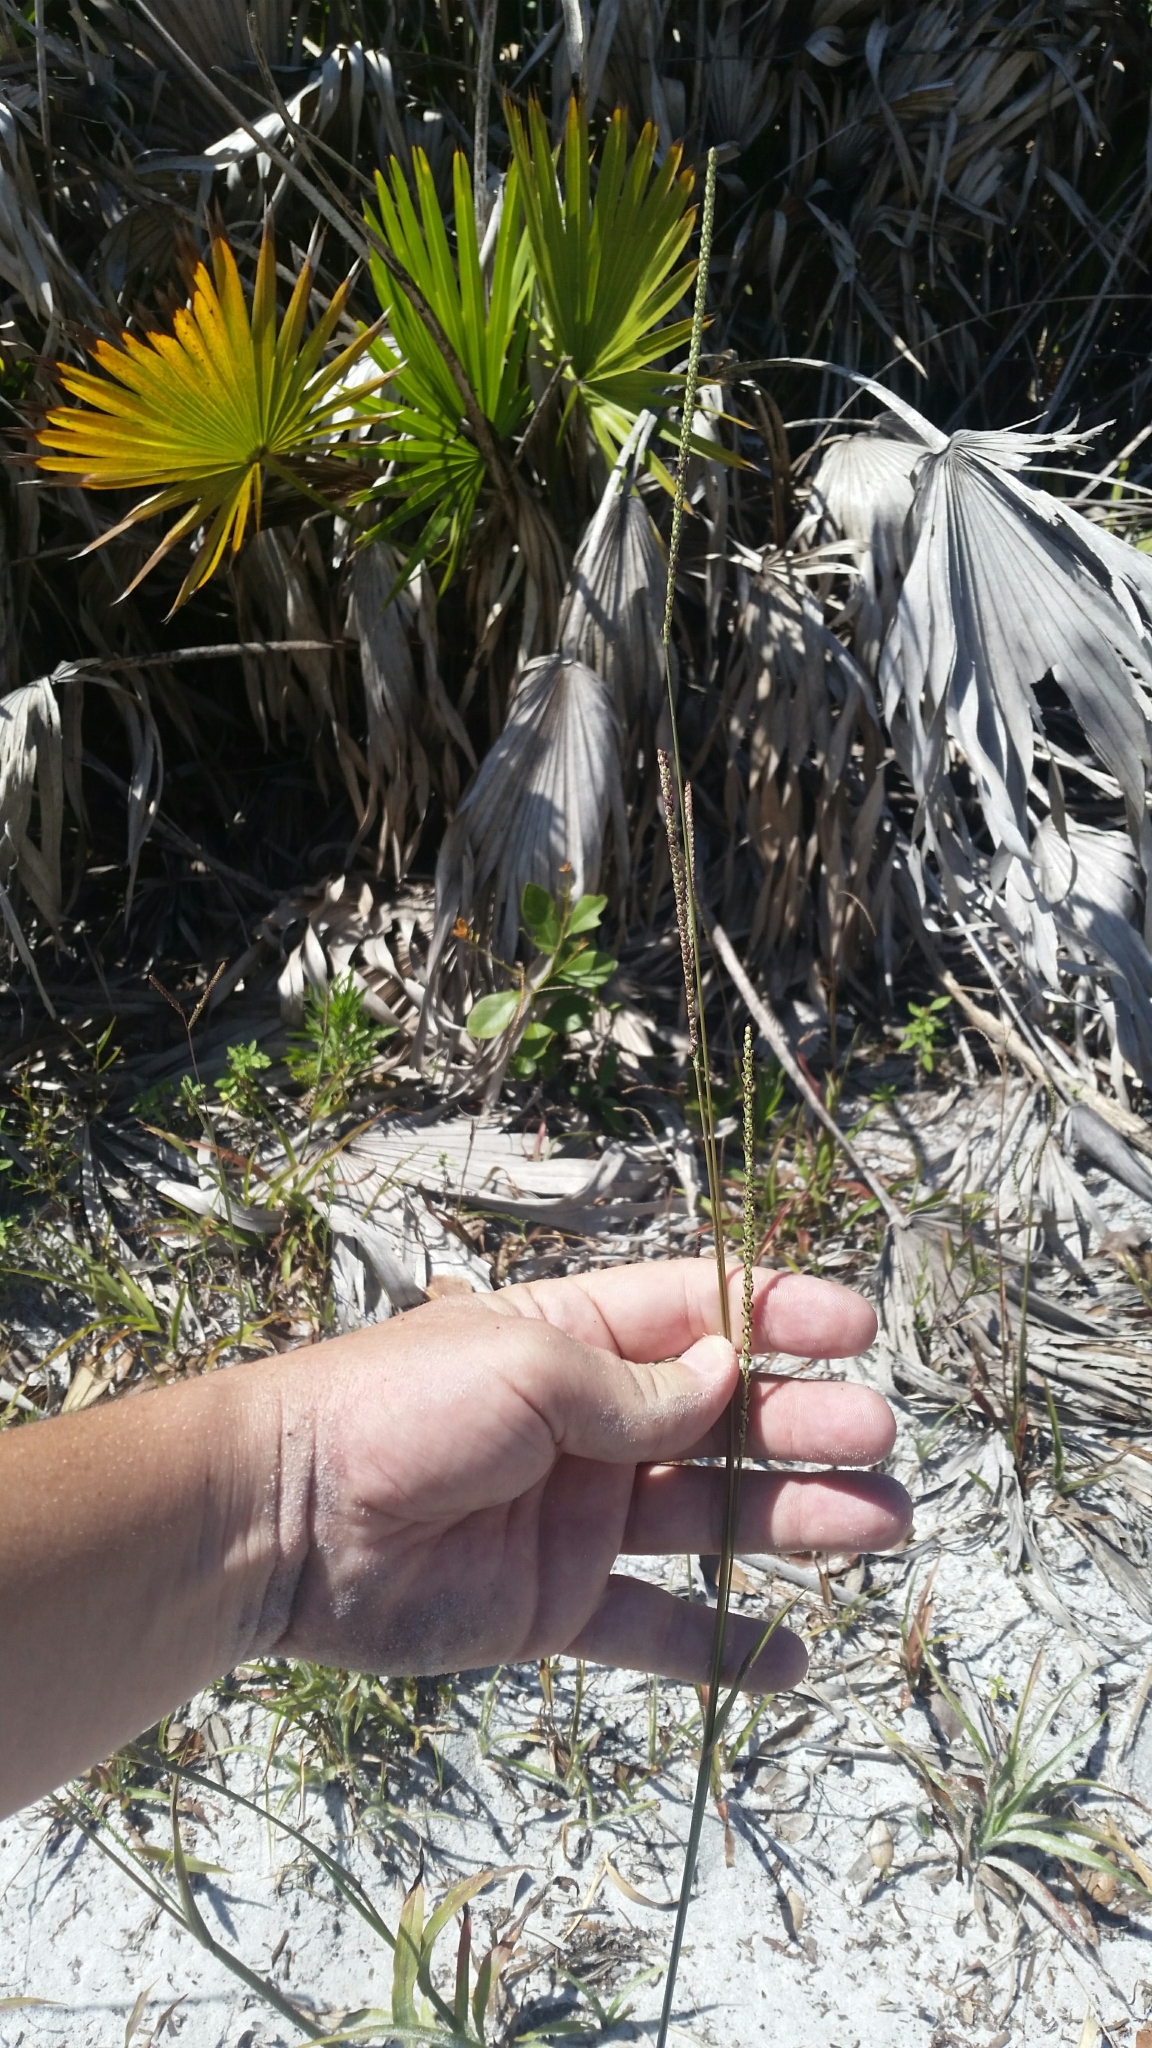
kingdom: Plantae
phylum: Tracheophyta
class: Liliopsida
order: Poales
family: Poaceae
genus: Paspalum
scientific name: Paspalum setaceum
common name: Slender paspalum
